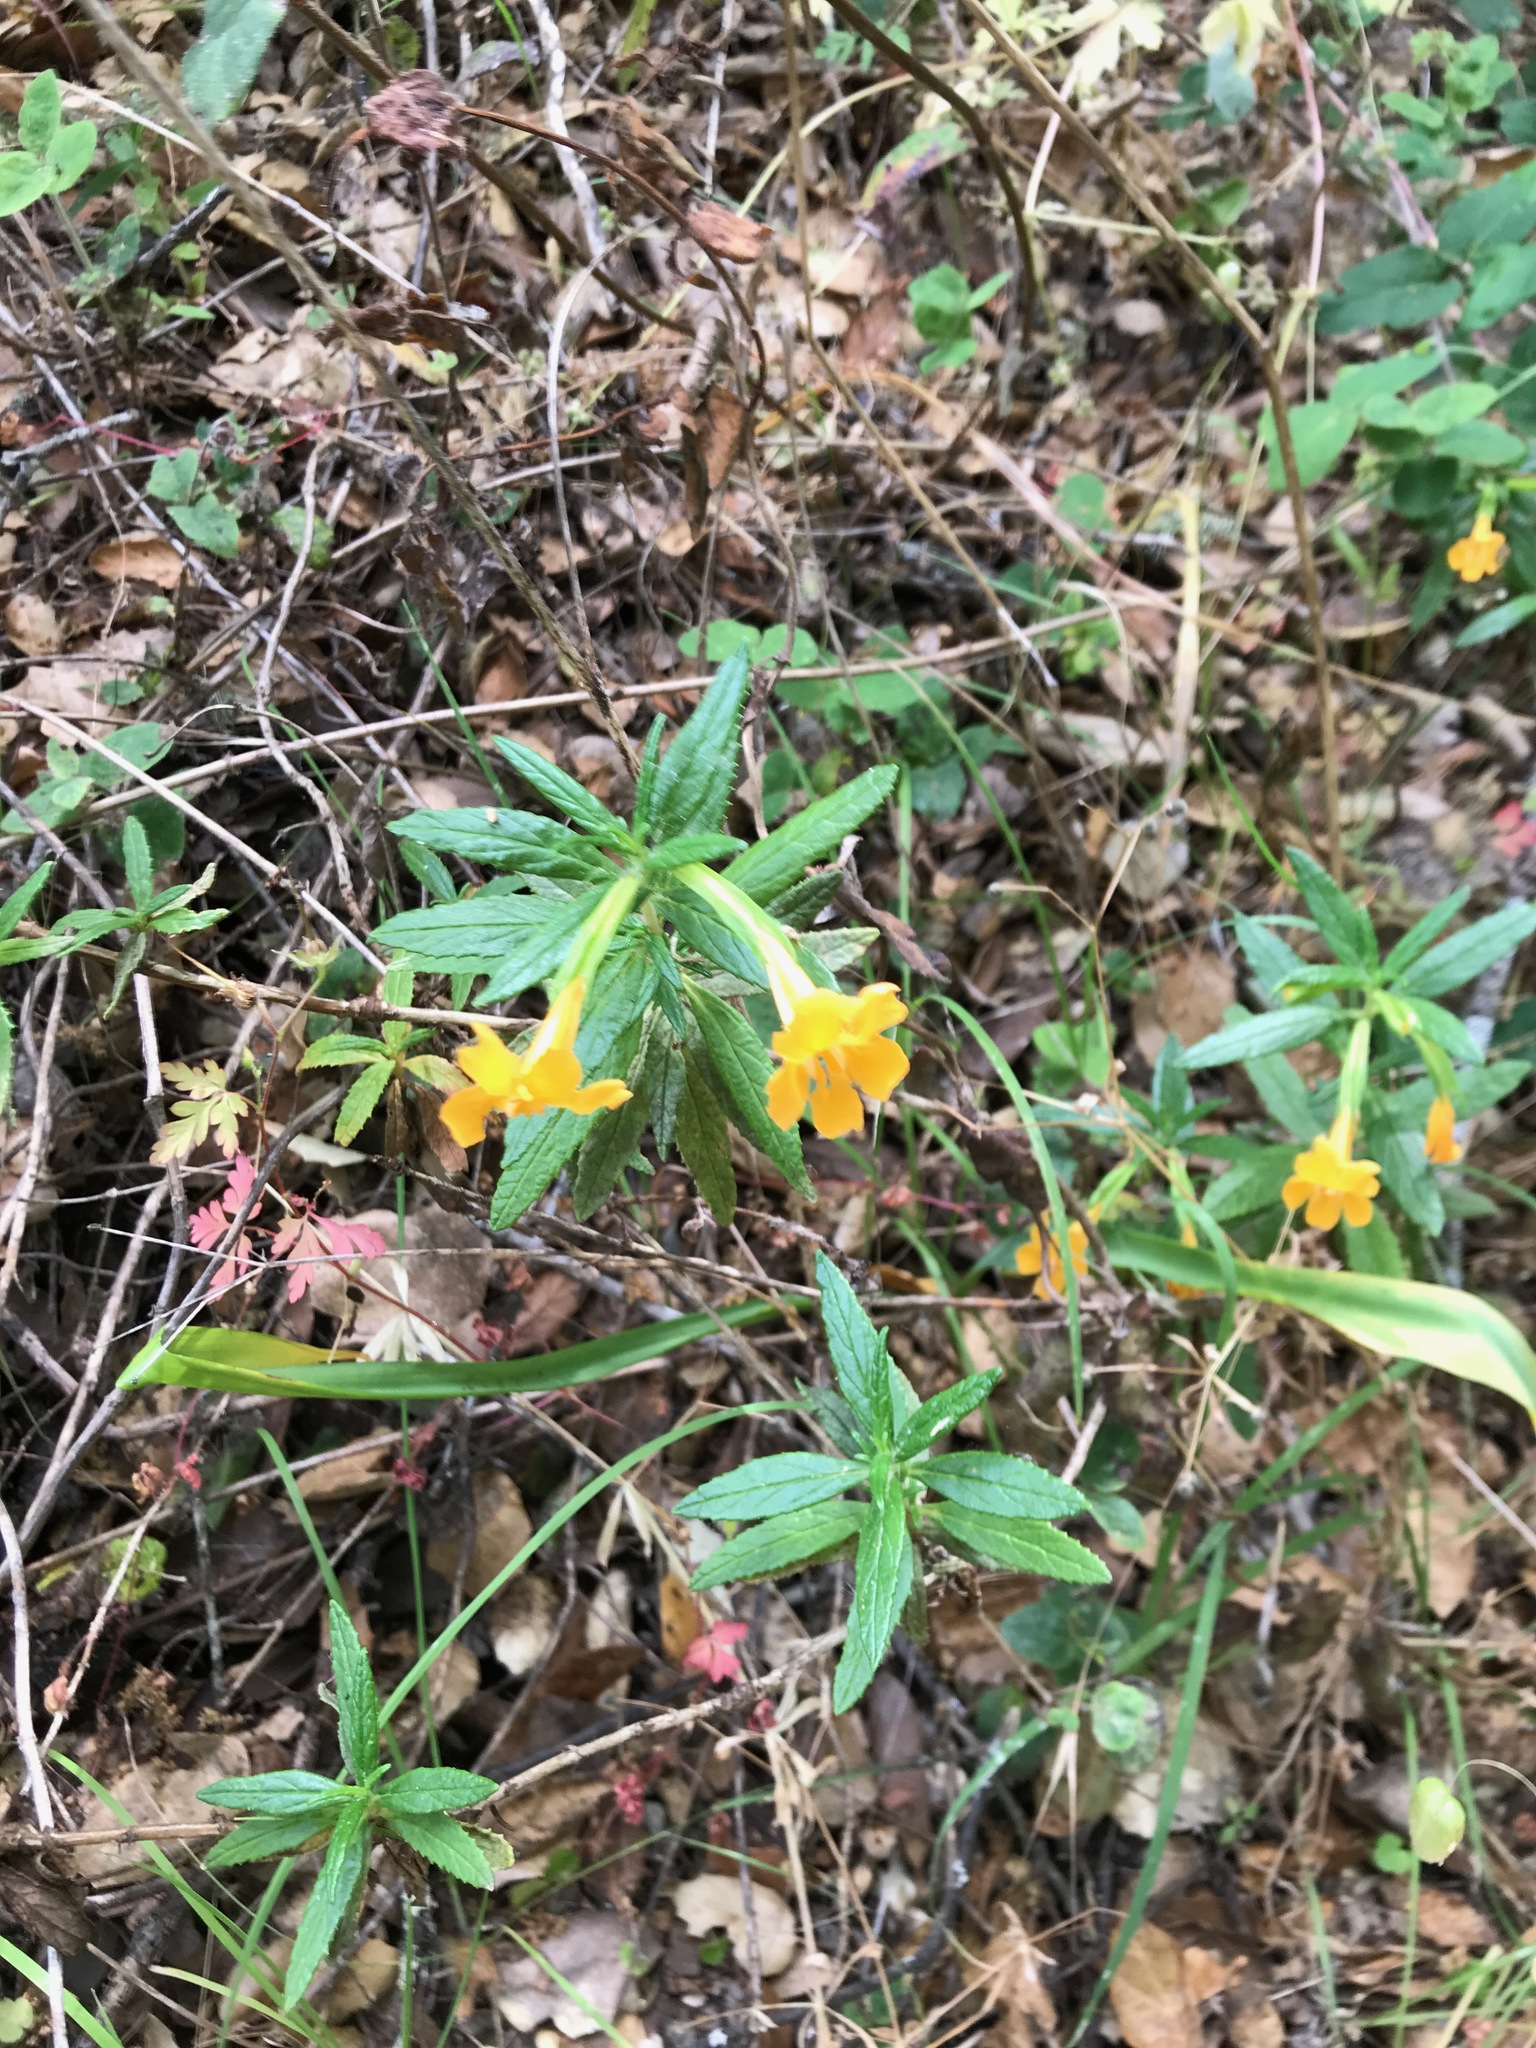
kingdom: Plantae
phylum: Tracheophyta
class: Magnoliopsida
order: Lamiales
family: Phrymaceae
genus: Diplacus
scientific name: Diplacus aurantiacus
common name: Bush monkey-flower
